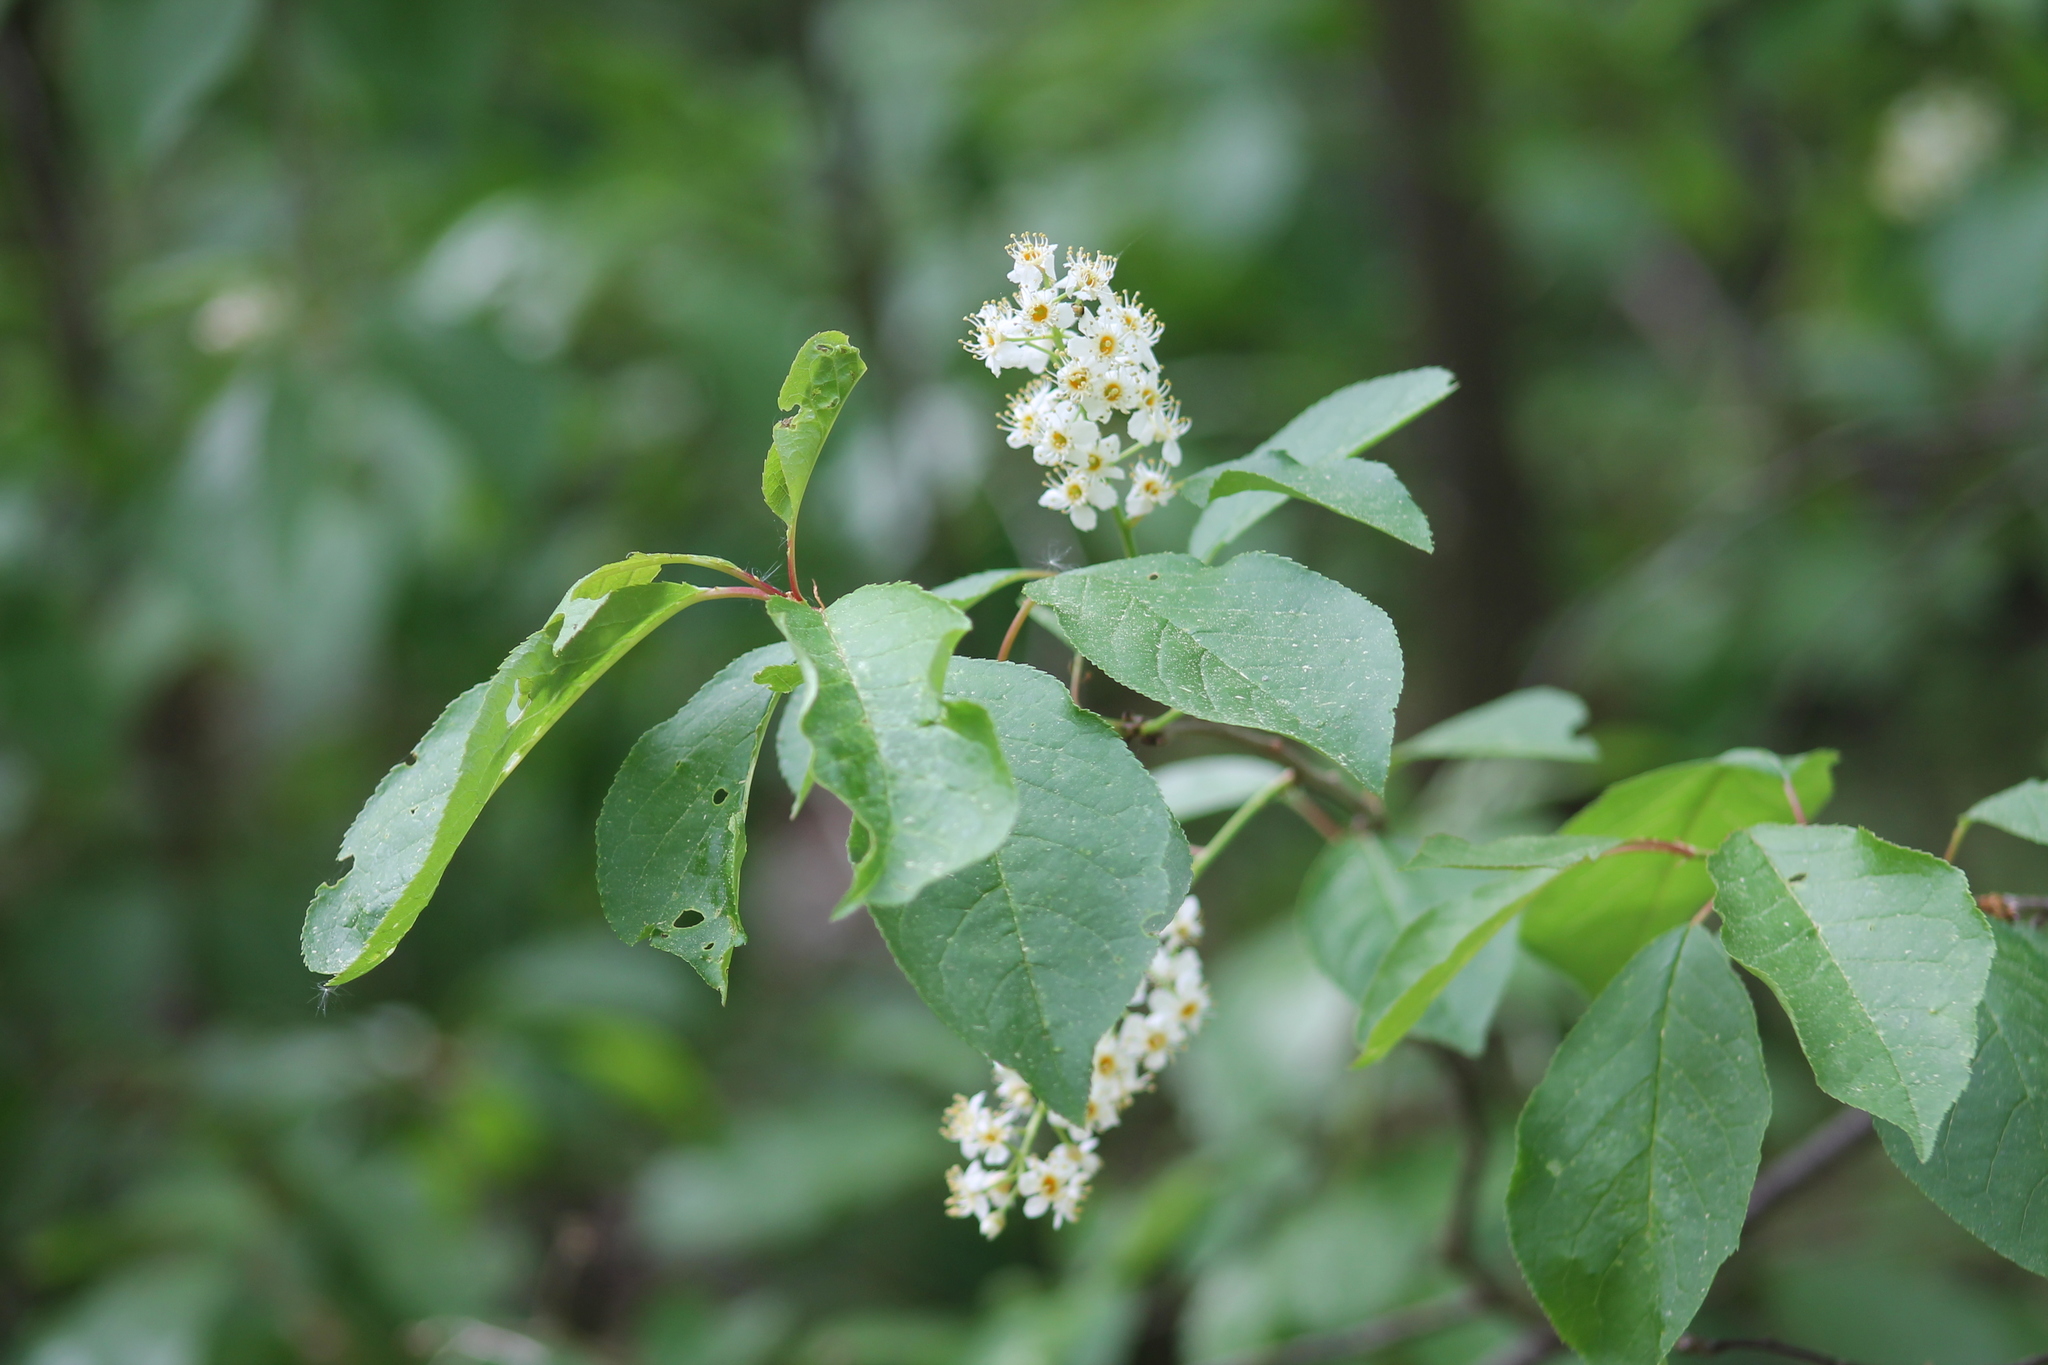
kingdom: Plantae
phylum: Tracheophyta
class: Magnoliopsida
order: Rosales
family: Rosaceae
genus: Prunus
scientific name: Prunus padus
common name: Bird cherry
